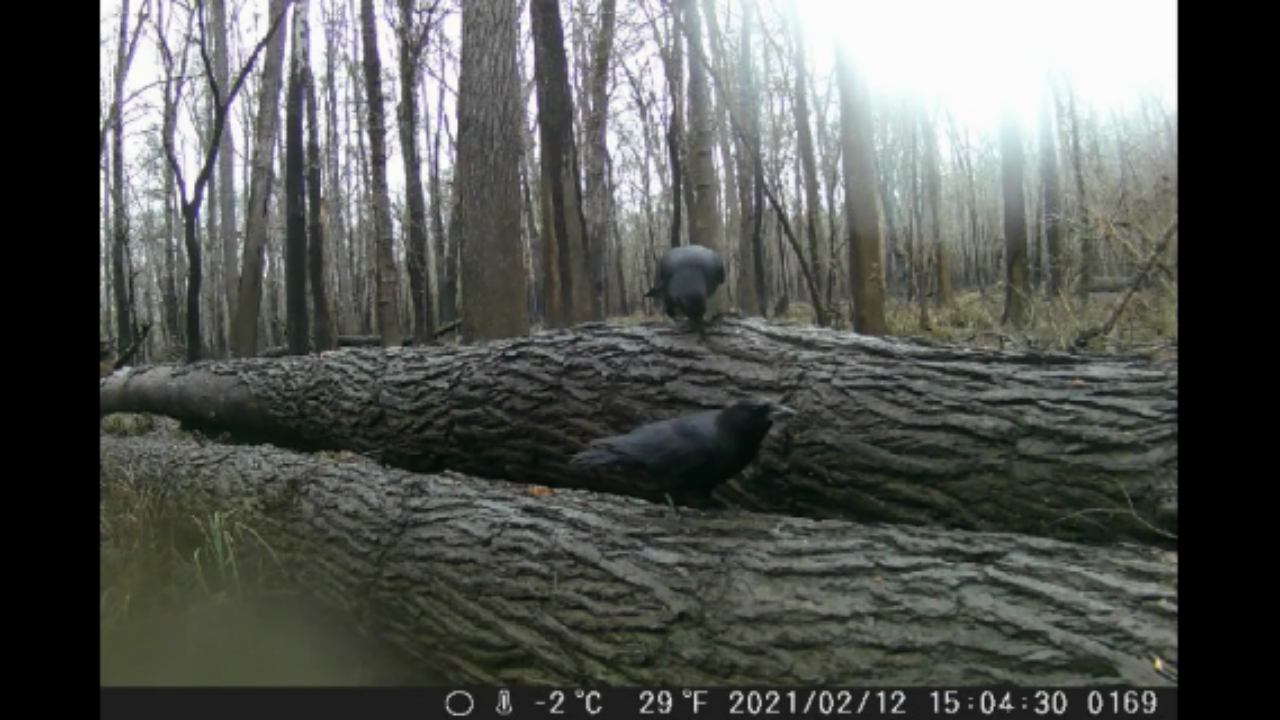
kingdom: Animalia
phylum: Chordata
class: Aves
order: Passeriformes
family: Corvidae
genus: Corvus
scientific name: Corvus
